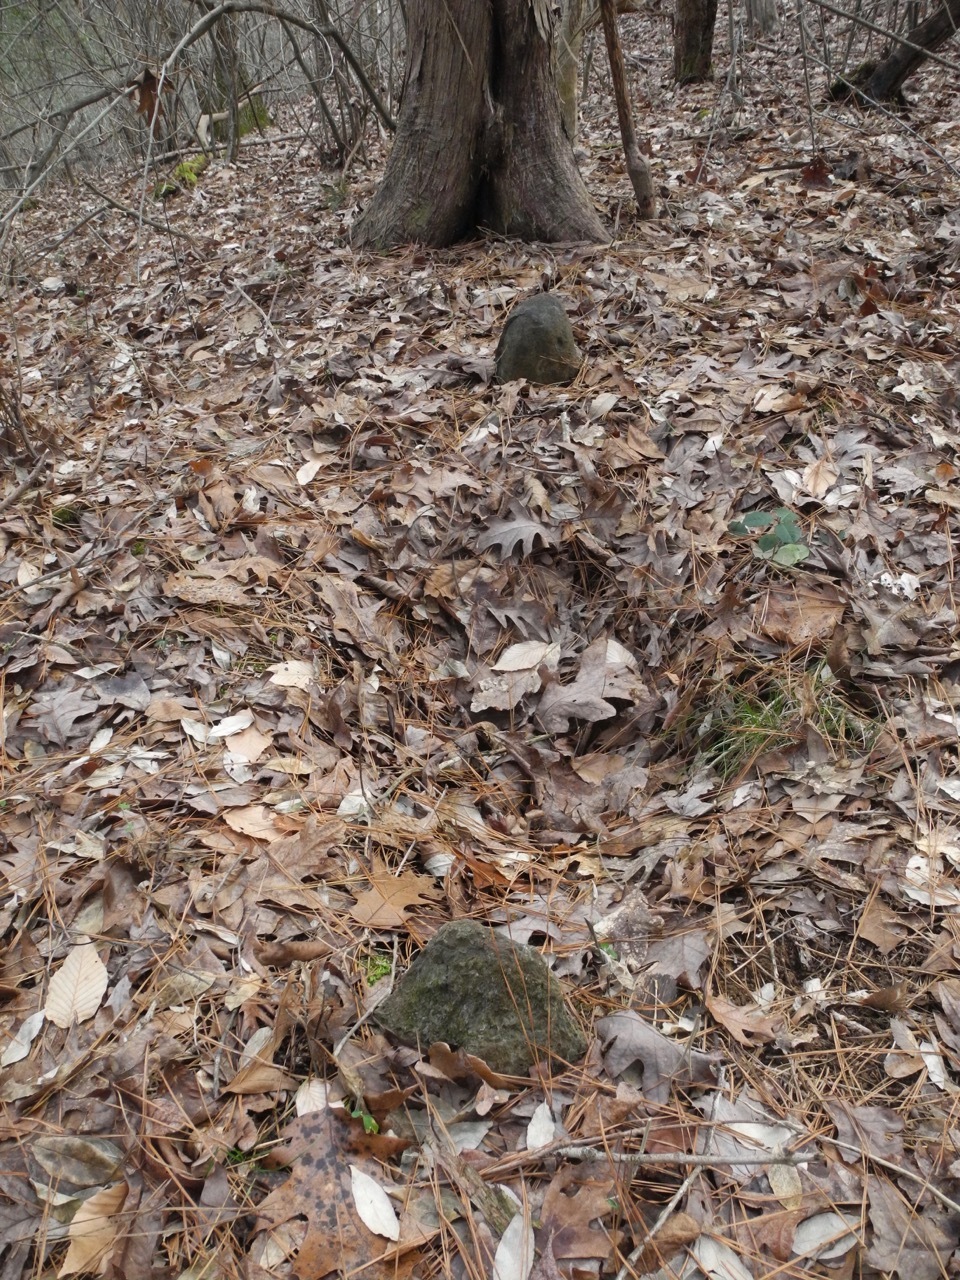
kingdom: Plantae
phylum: Tracheophyta
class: Pinopsida
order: Pinales
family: Cupressaceae
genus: Juniperus
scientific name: Juniperus virginiana
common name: Red juniper
